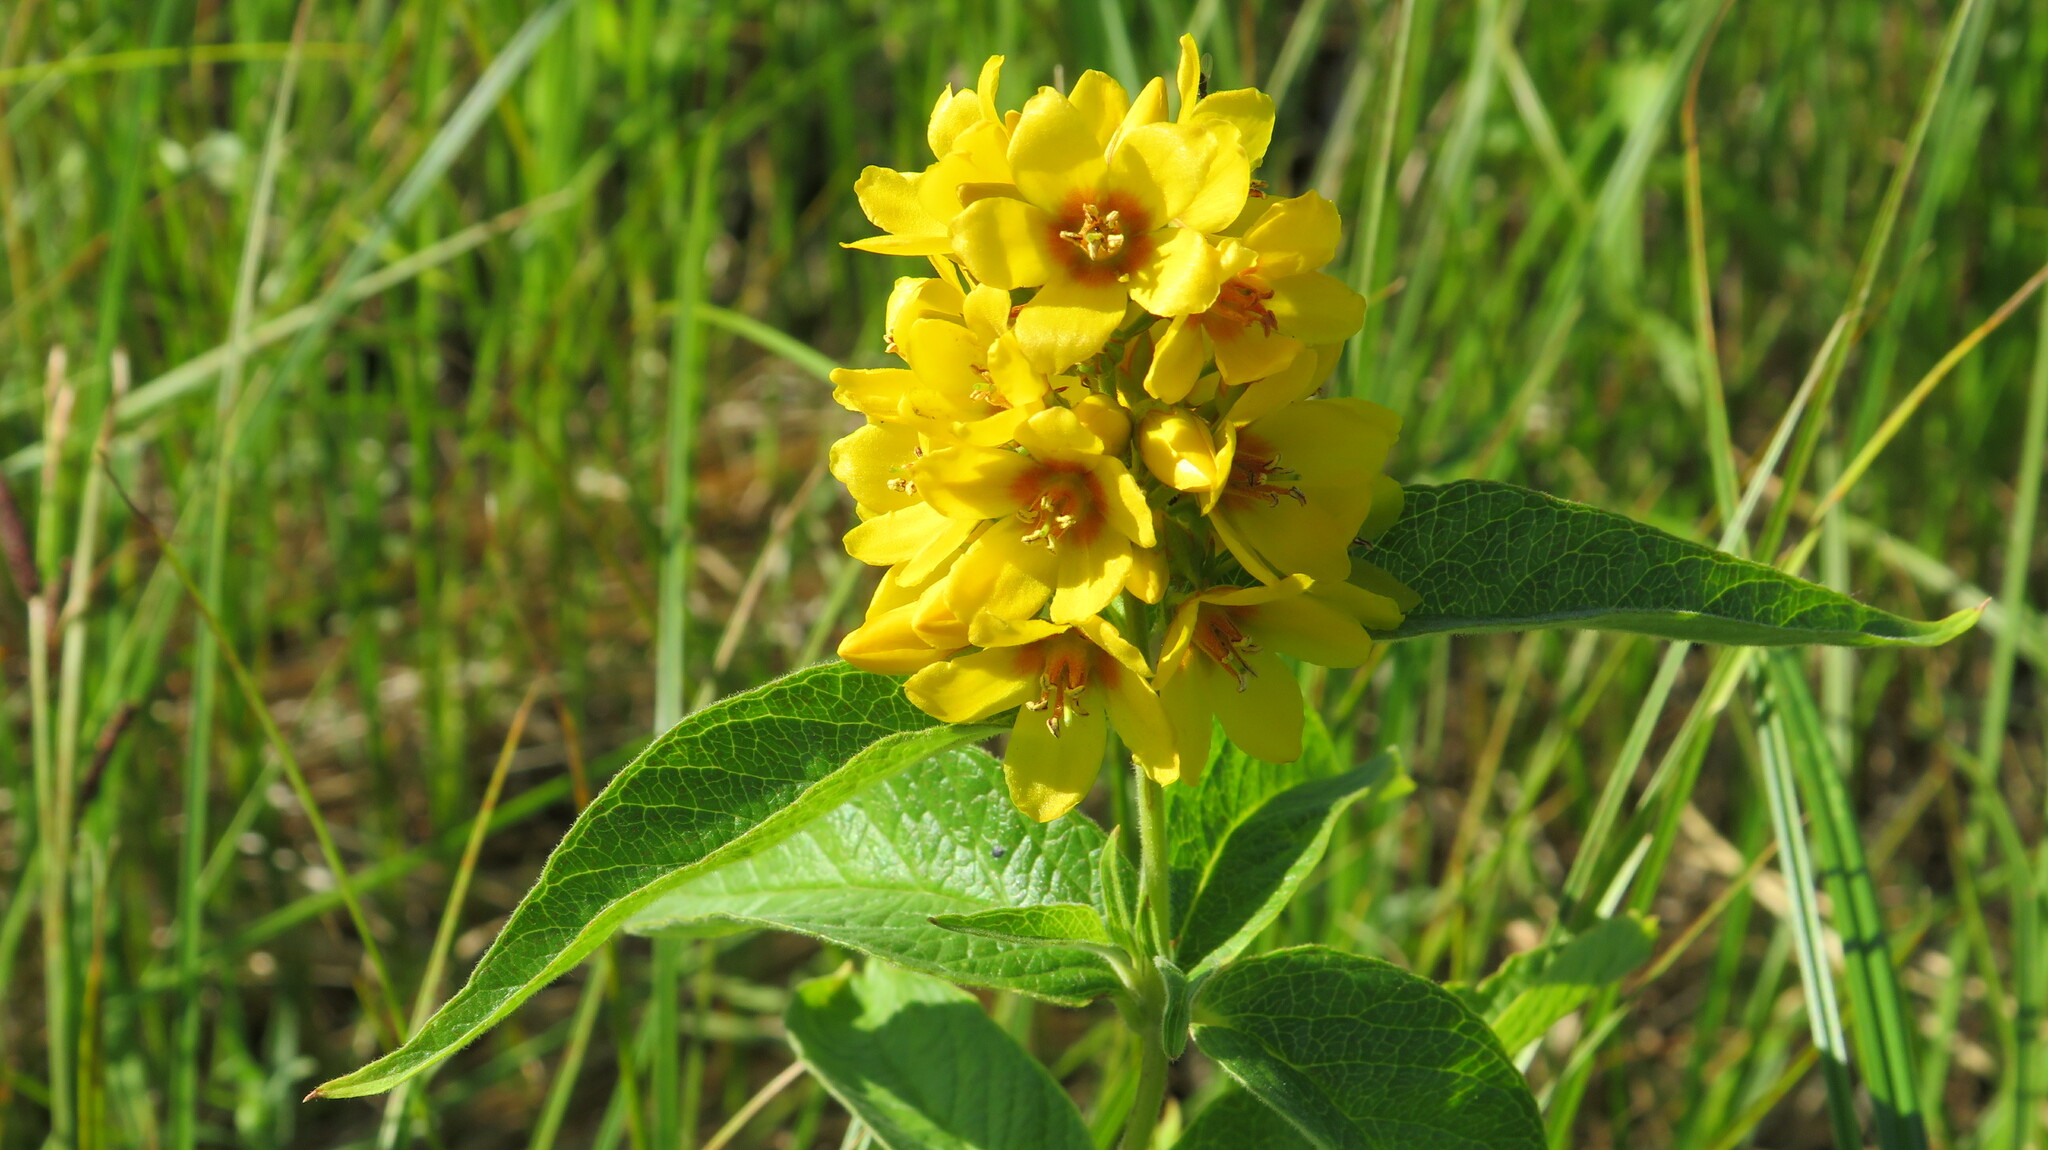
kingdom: Plantae
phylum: Tracheophyta
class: Magnoliopsida
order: Ericales
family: Primulaceae
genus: Lysimachia
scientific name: Lysimachia vulgaris
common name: Yellow loosestrife
